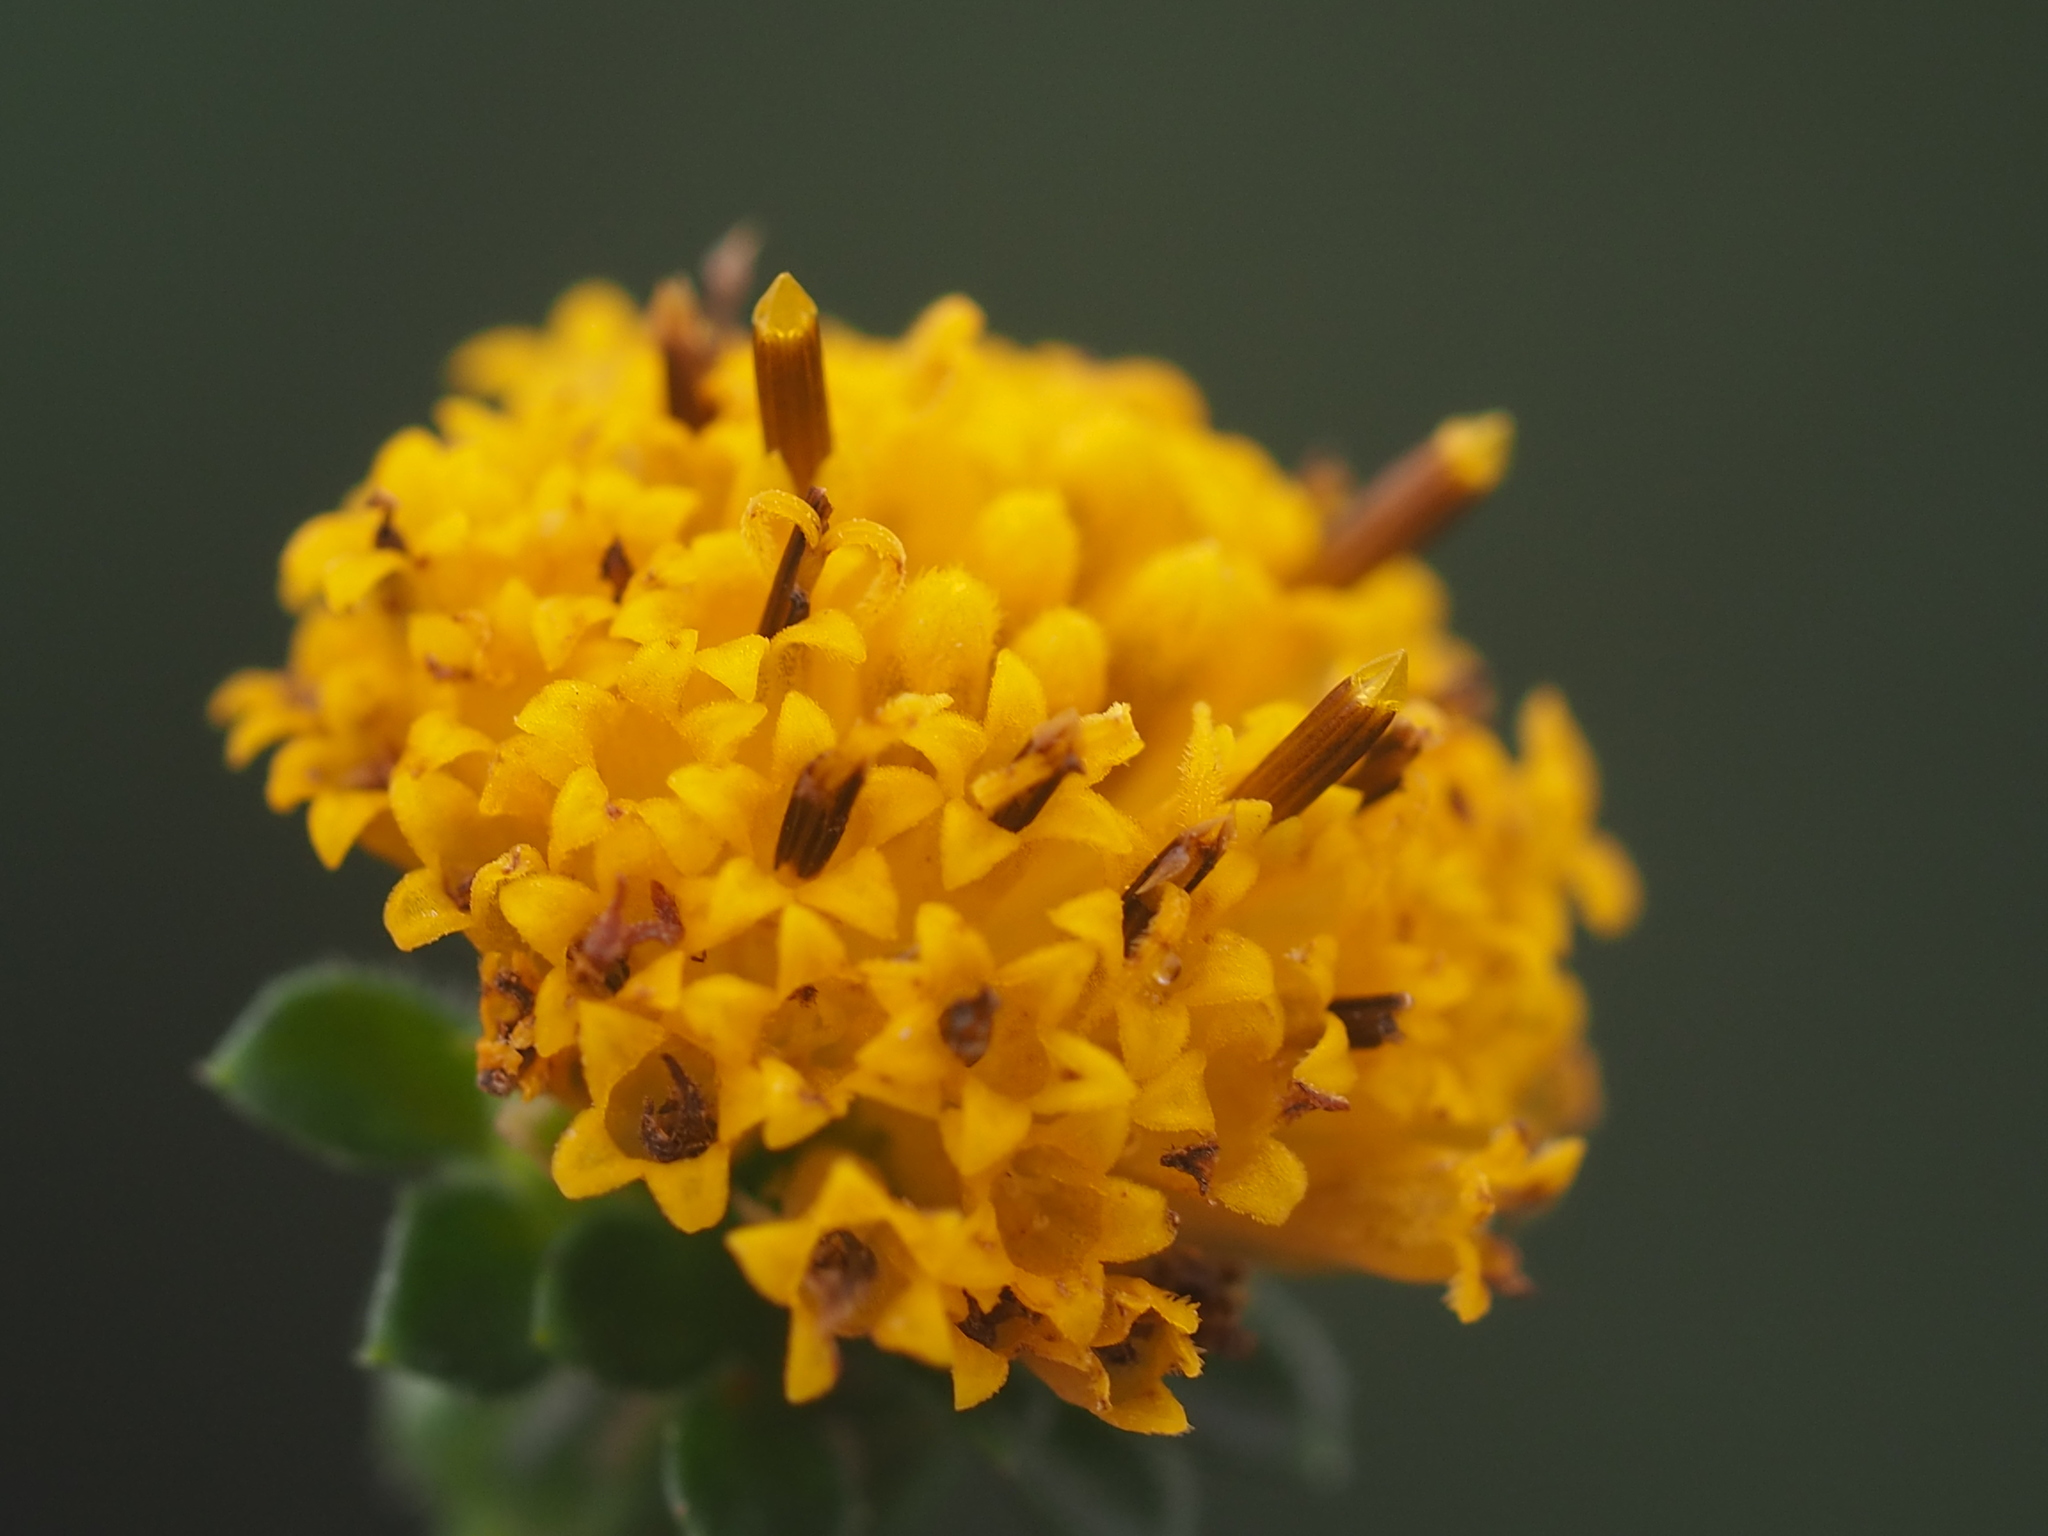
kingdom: Plantae
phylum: Tracheophyta
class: Magnoliopsida
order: Asterales
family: Asteraceae
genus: Bidens
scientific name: Bidens alba
